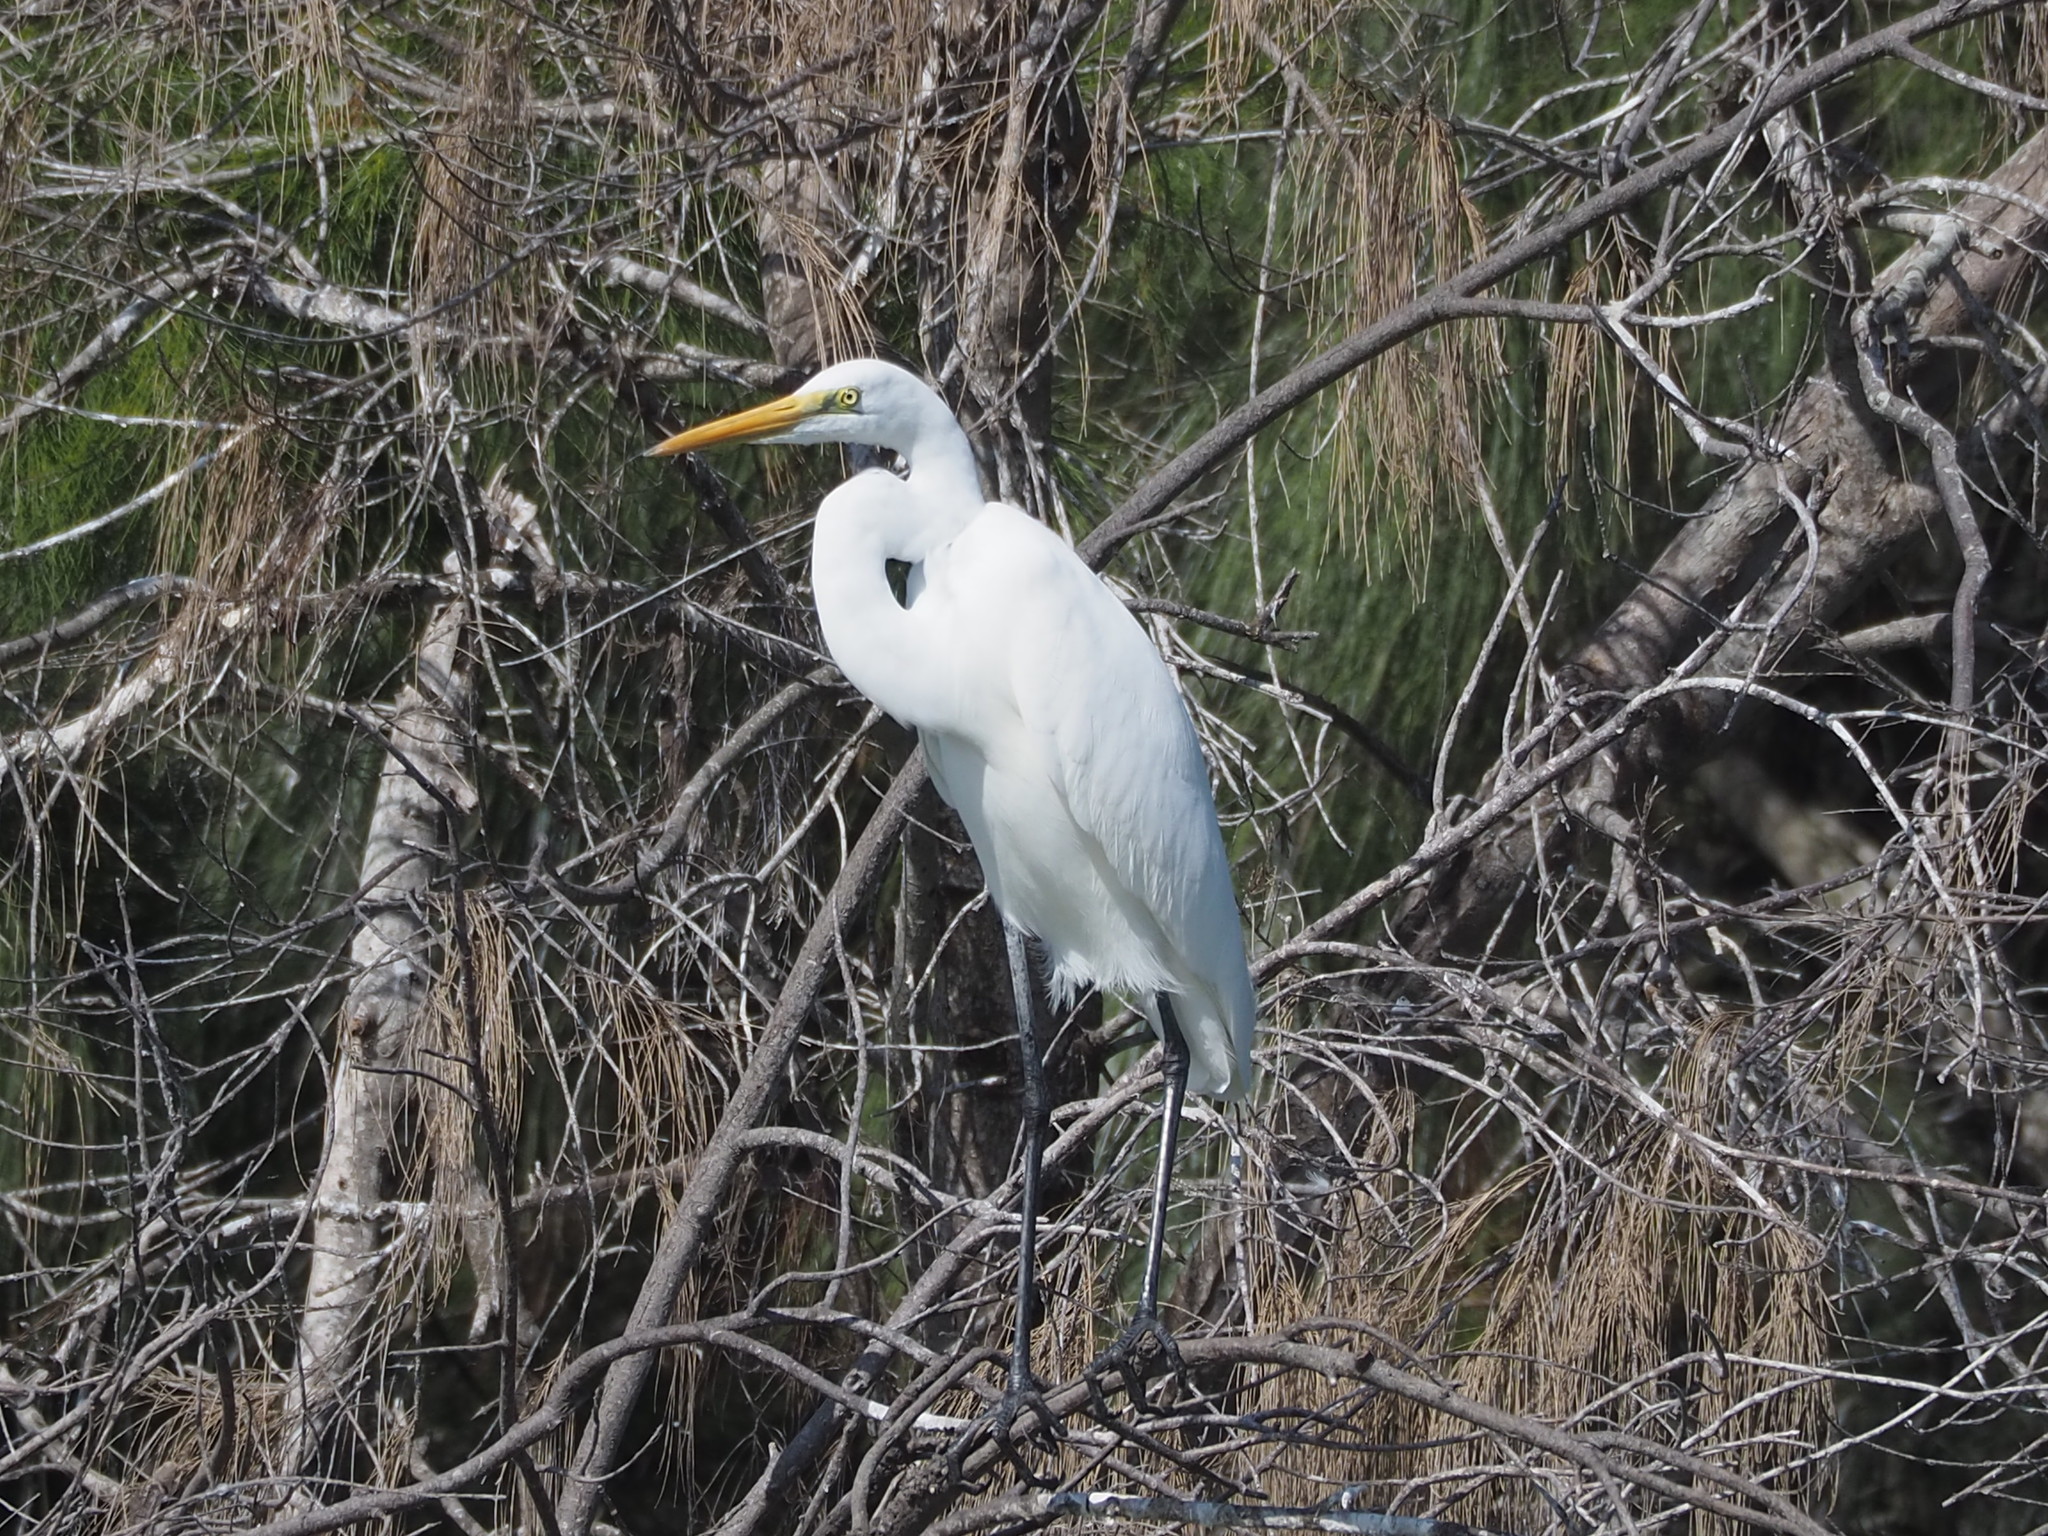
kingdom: Animalia
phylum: Chordata
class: Aves
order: Pelecaniformes
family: Ardeidae
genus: Ardea
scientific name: Ardea alba
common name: Great egret
